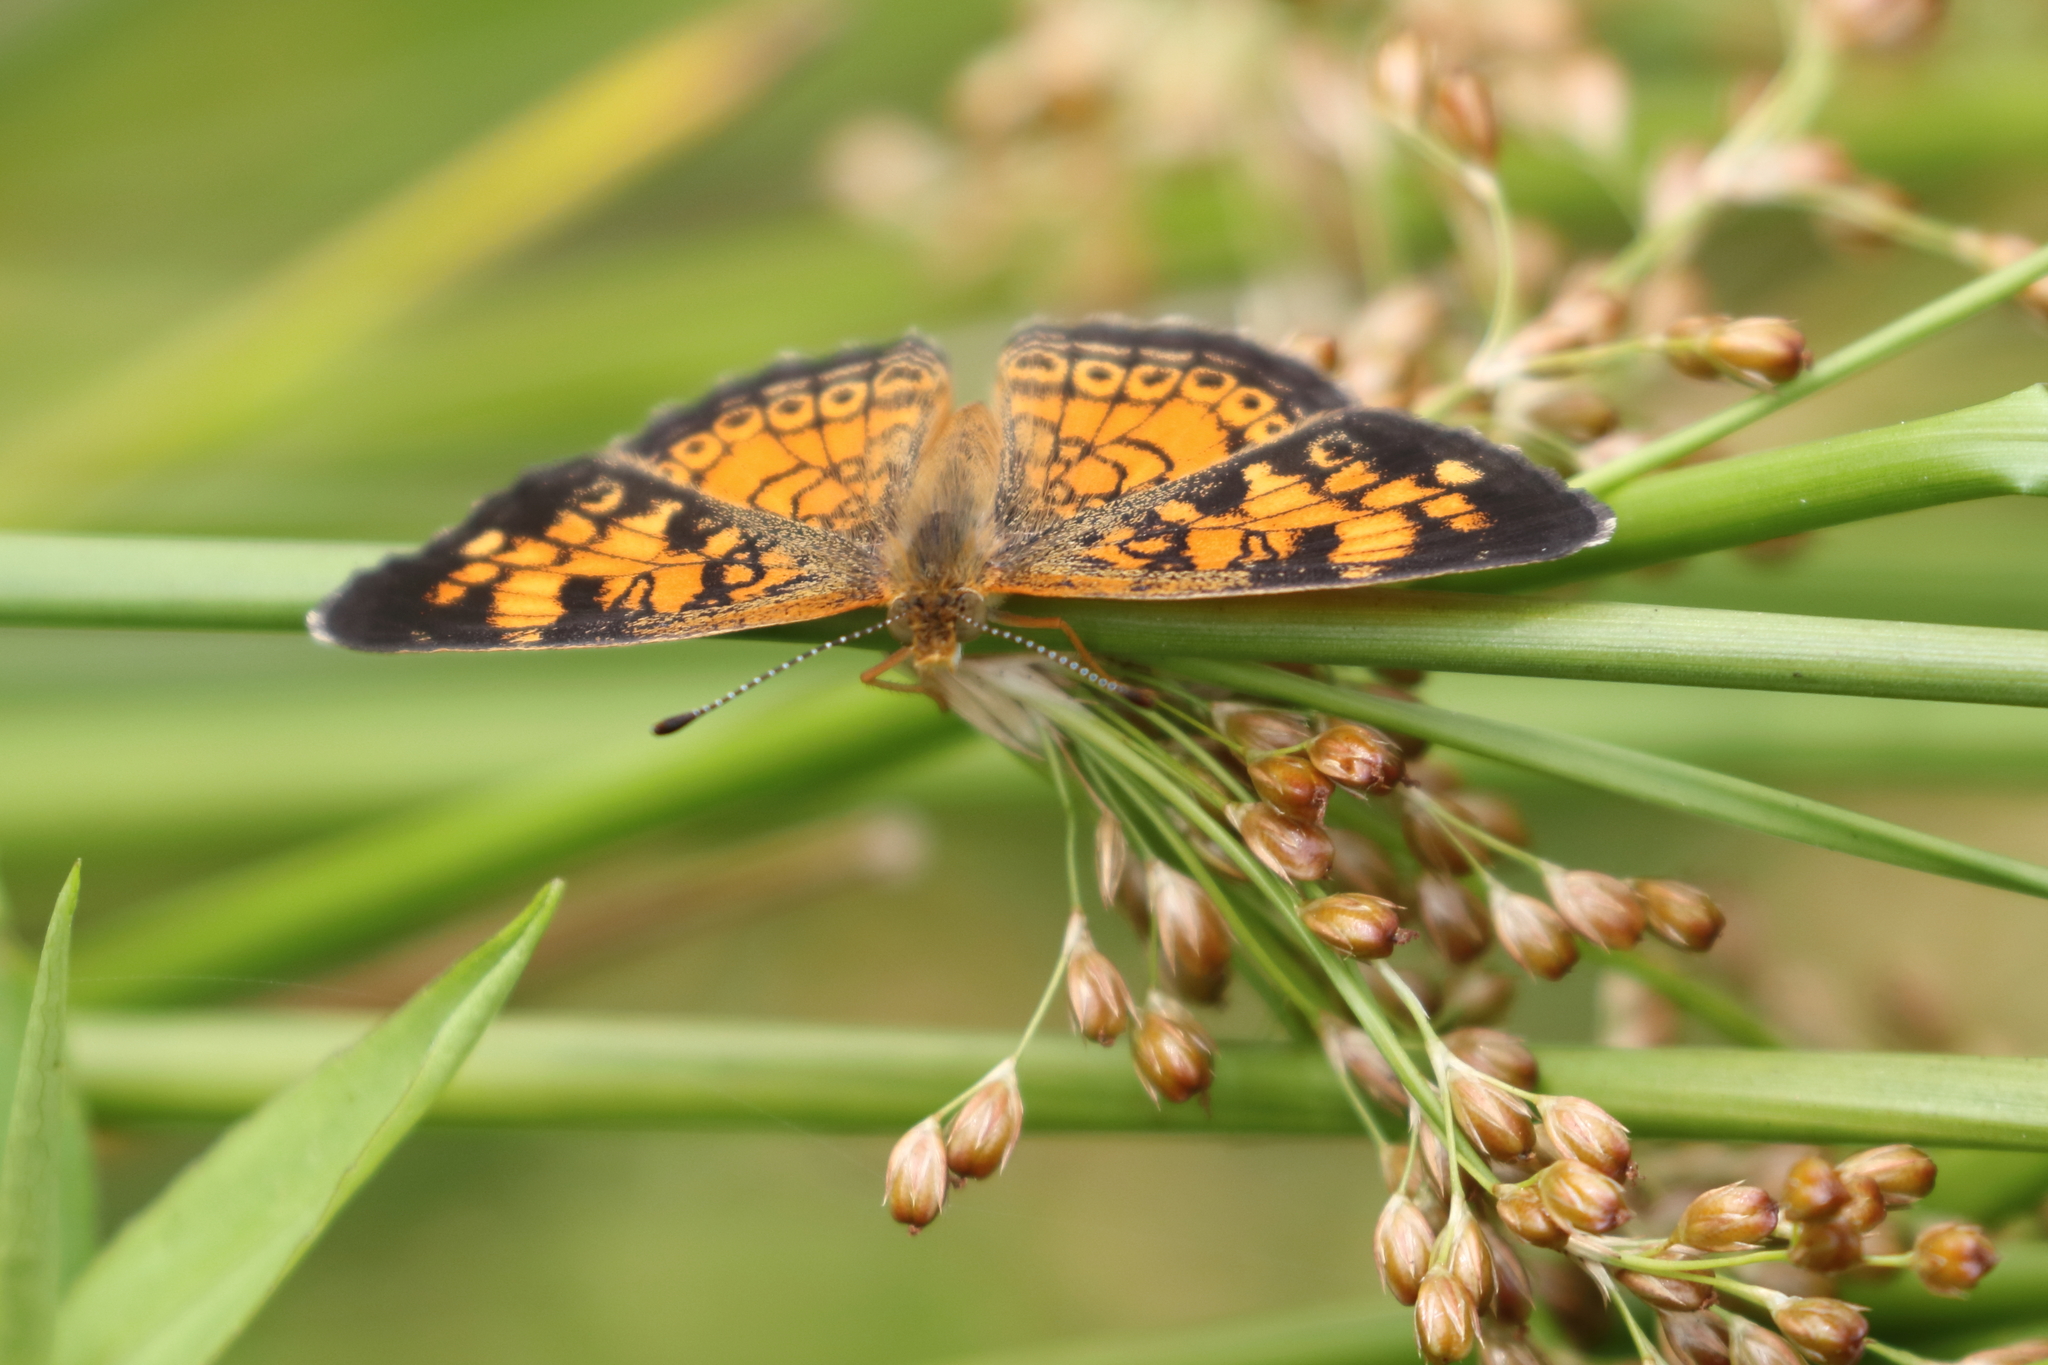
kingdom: Animalia
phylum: Arthropoda
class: Insecta
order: Lepidoptera
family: Nymphalidae
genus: Phyciodes
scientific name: Phyciodes tharos
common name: Pearl crescent
